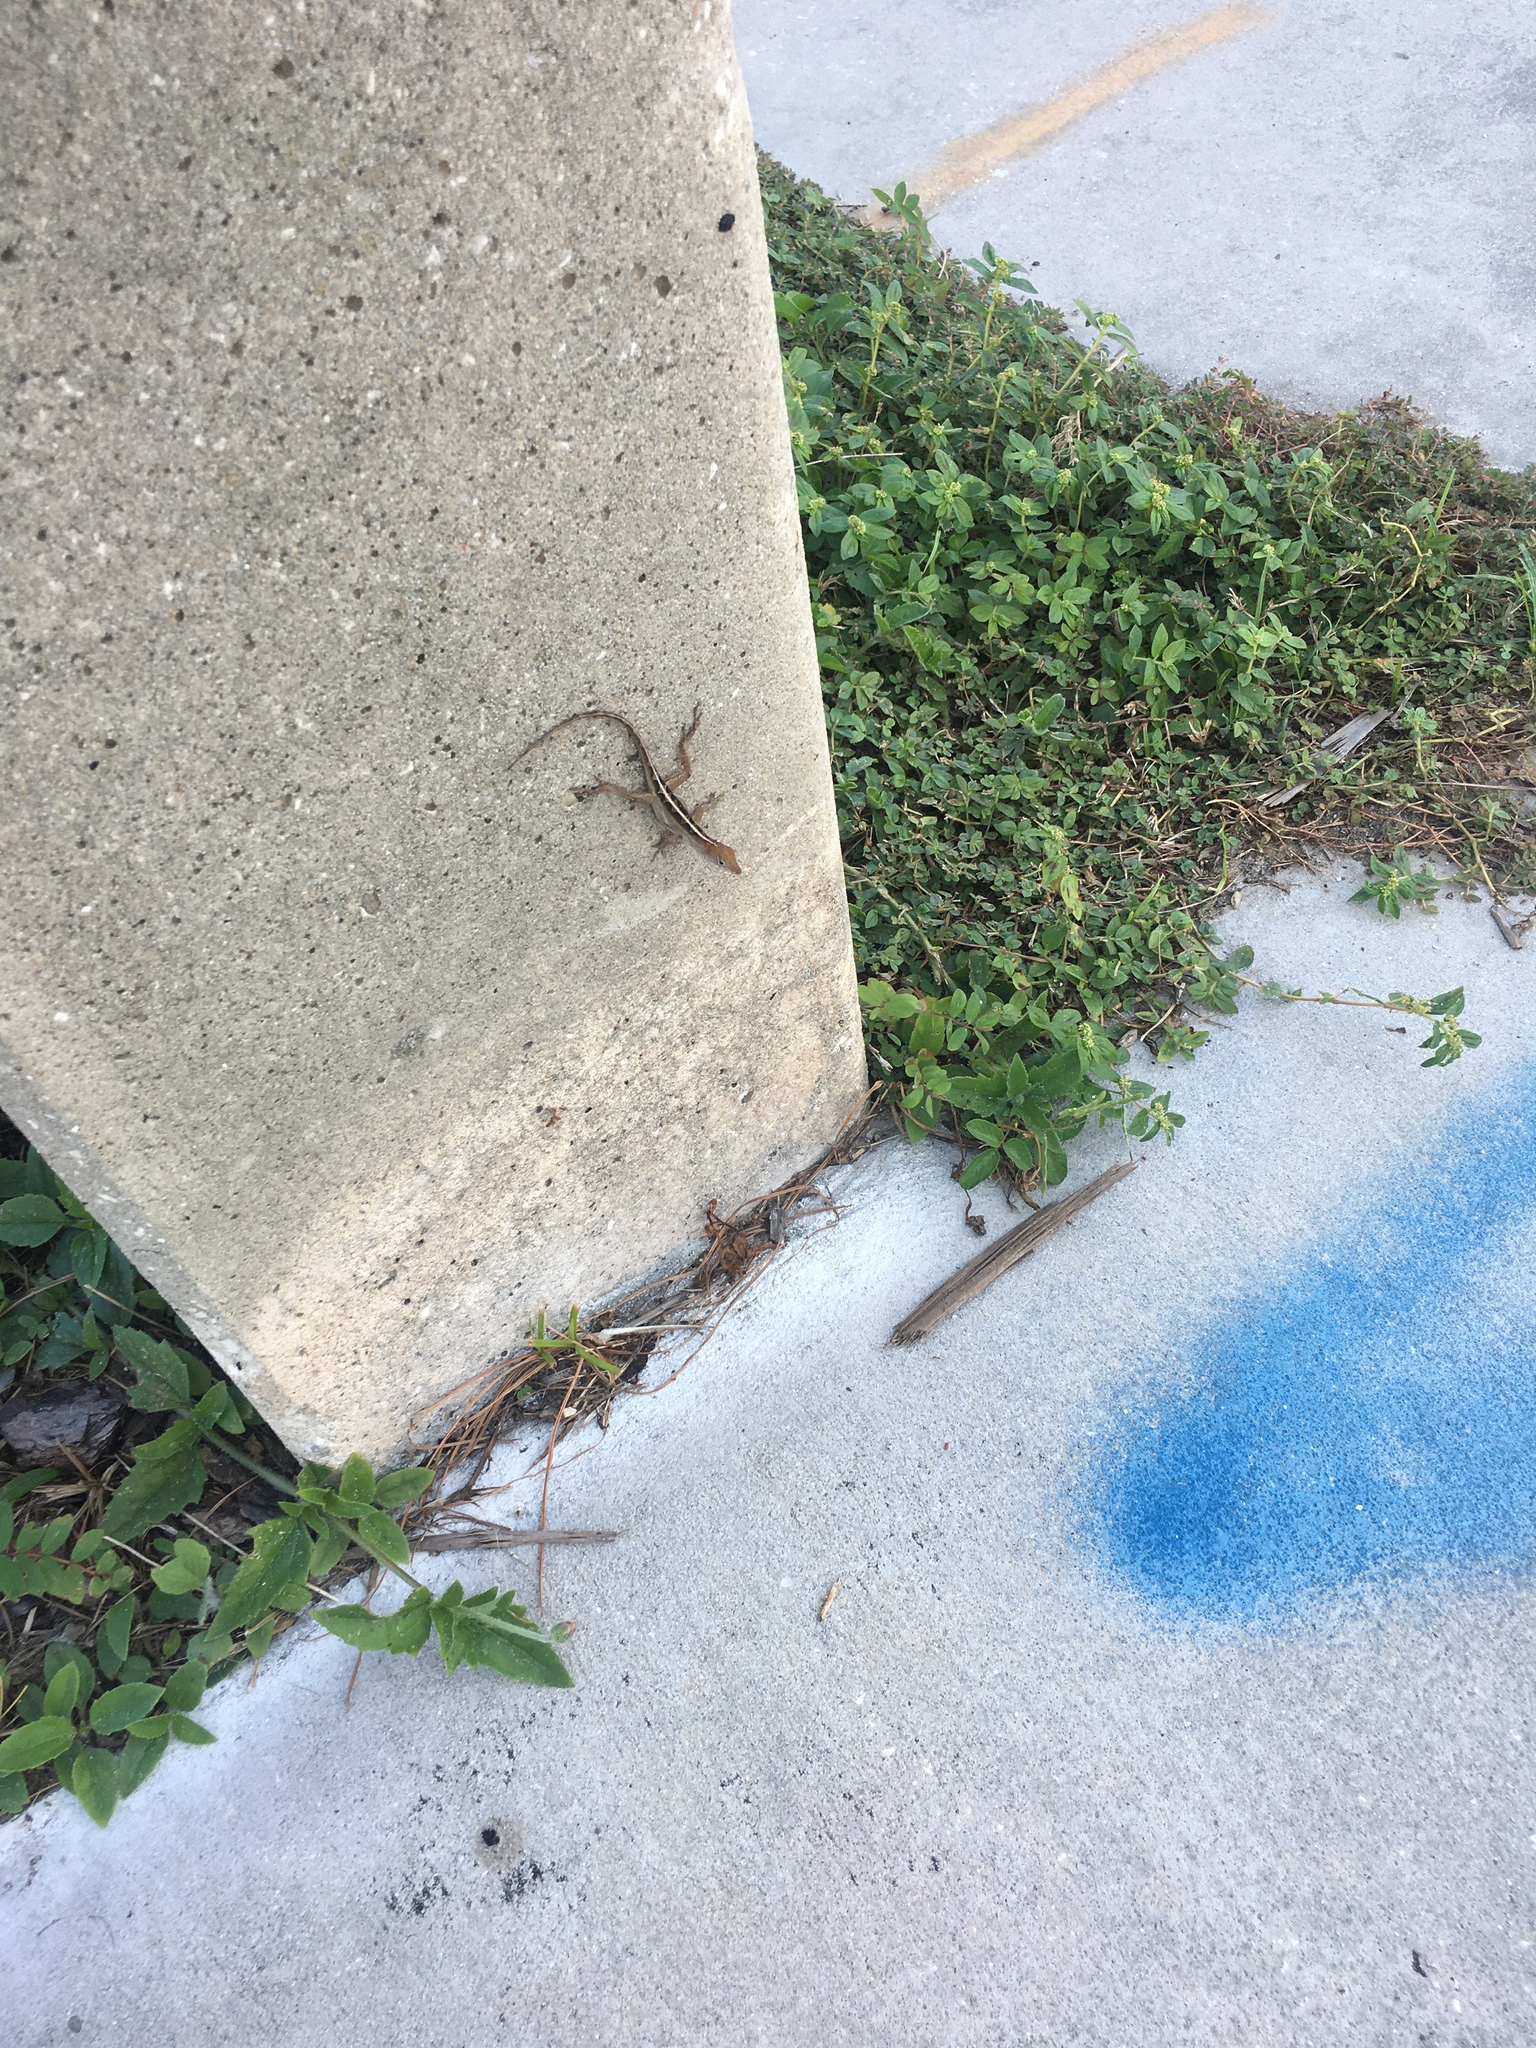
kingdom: Animalia
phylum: Chordata
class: Squamata
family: Dactyloidae
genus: Anolis
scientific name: Anolis sagrei
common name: Brown anole
